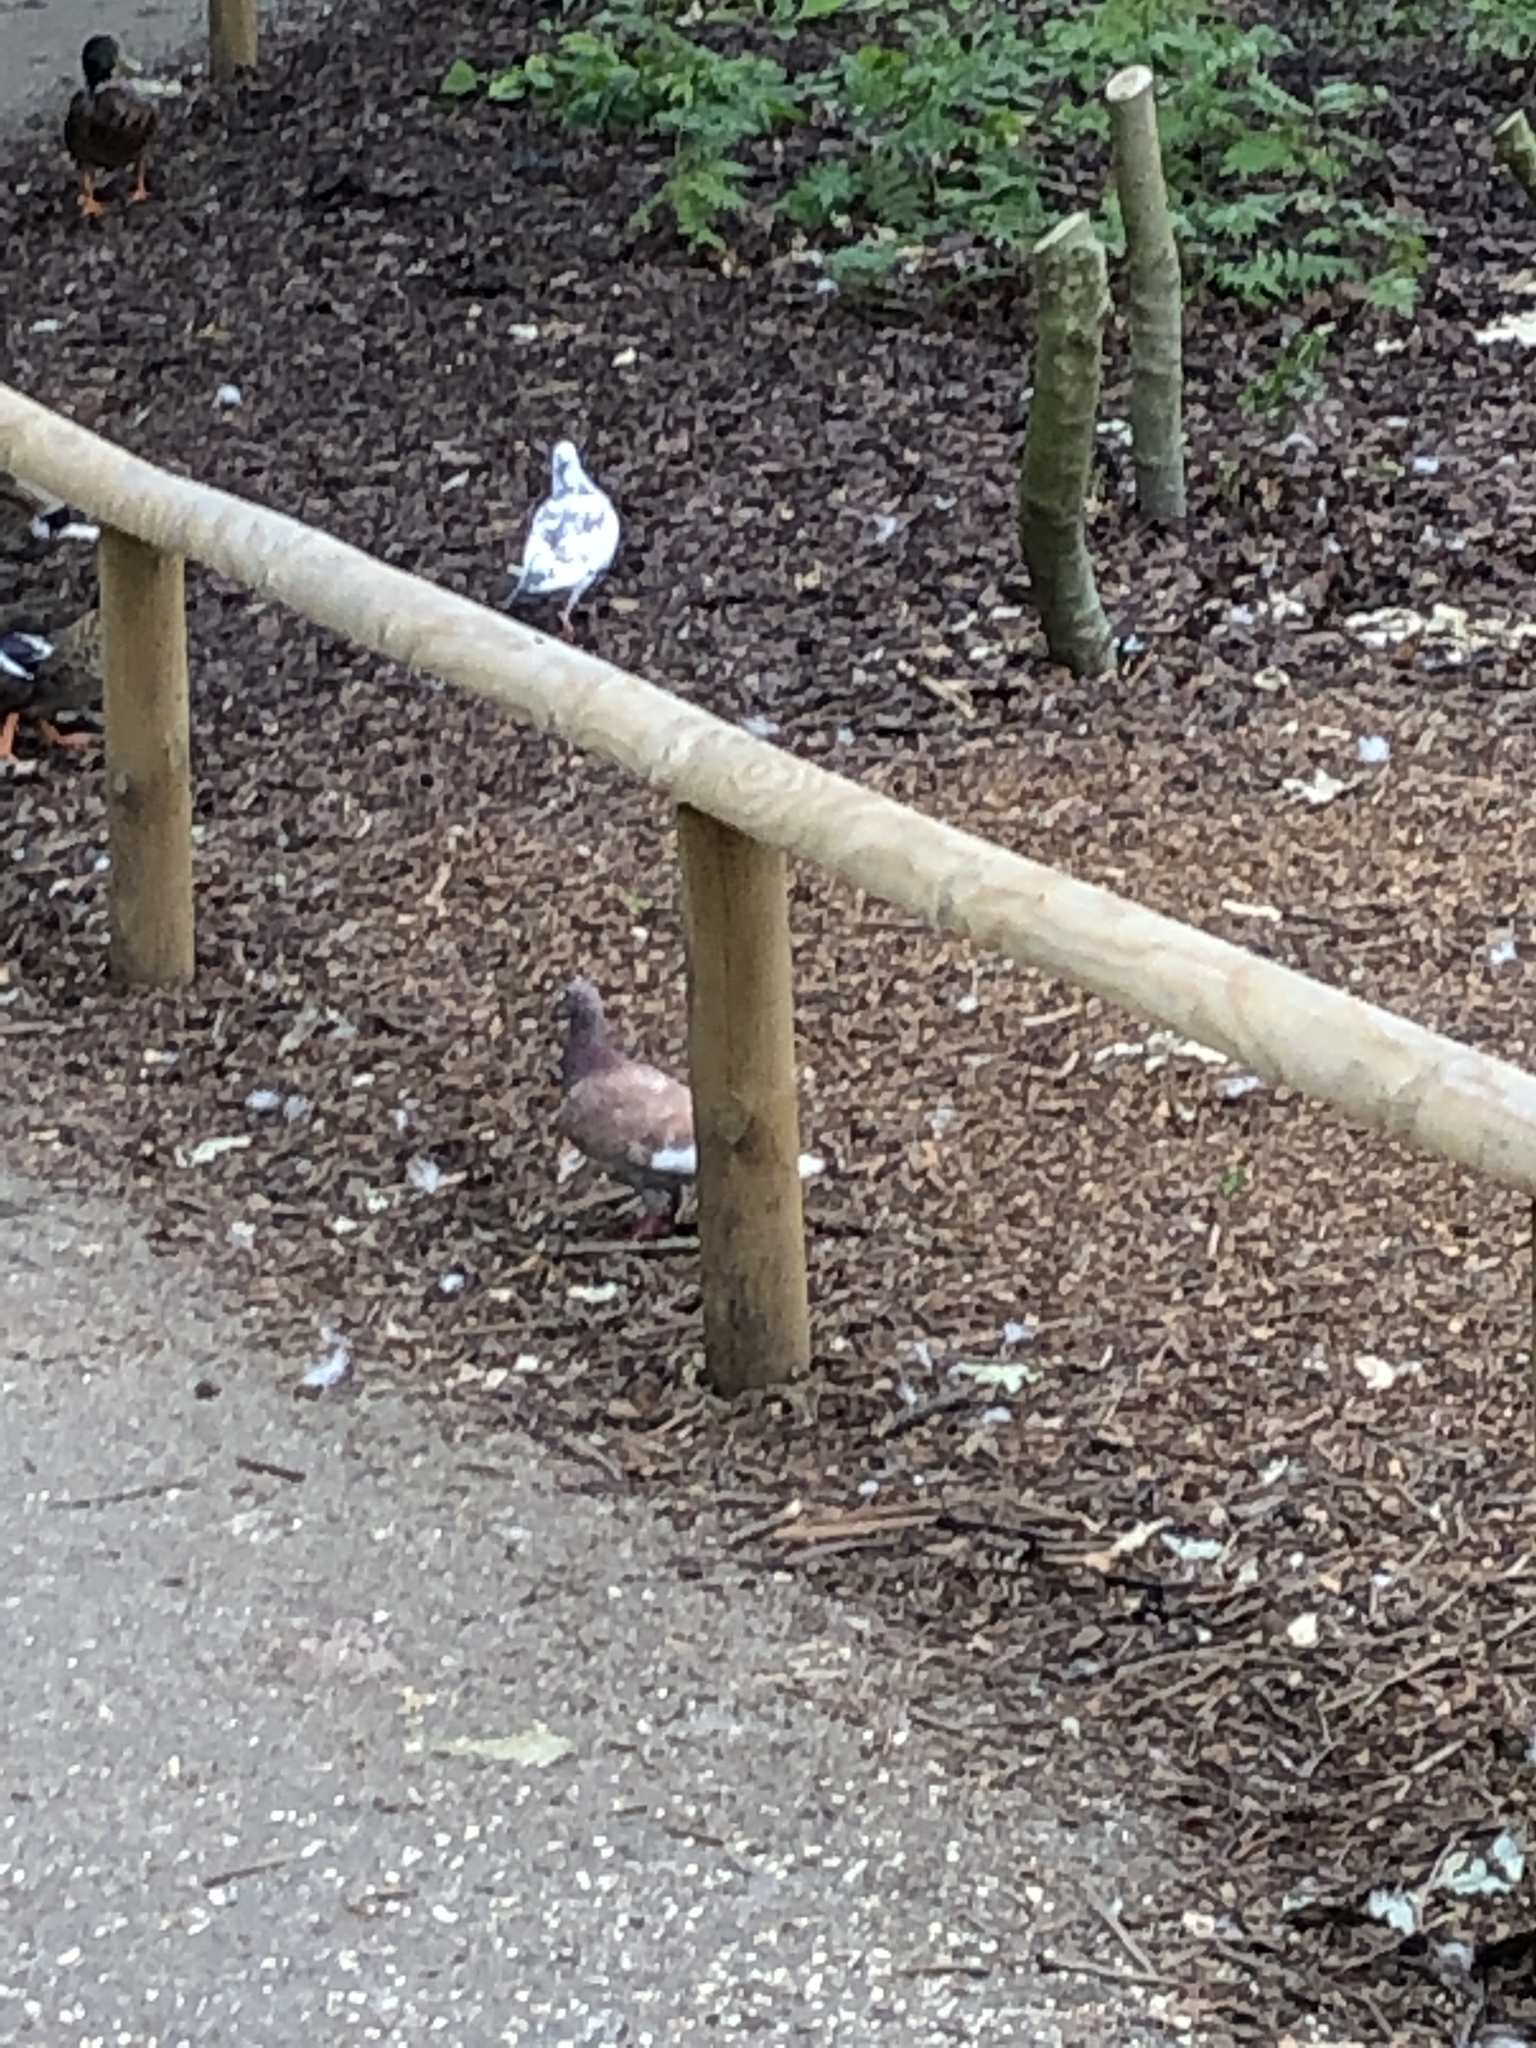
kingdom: Animalia
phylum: Chordata
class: Aves
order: Columbiformes
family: Columbidae
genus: Columba
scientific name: Columba livia
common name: Rock pigeon
